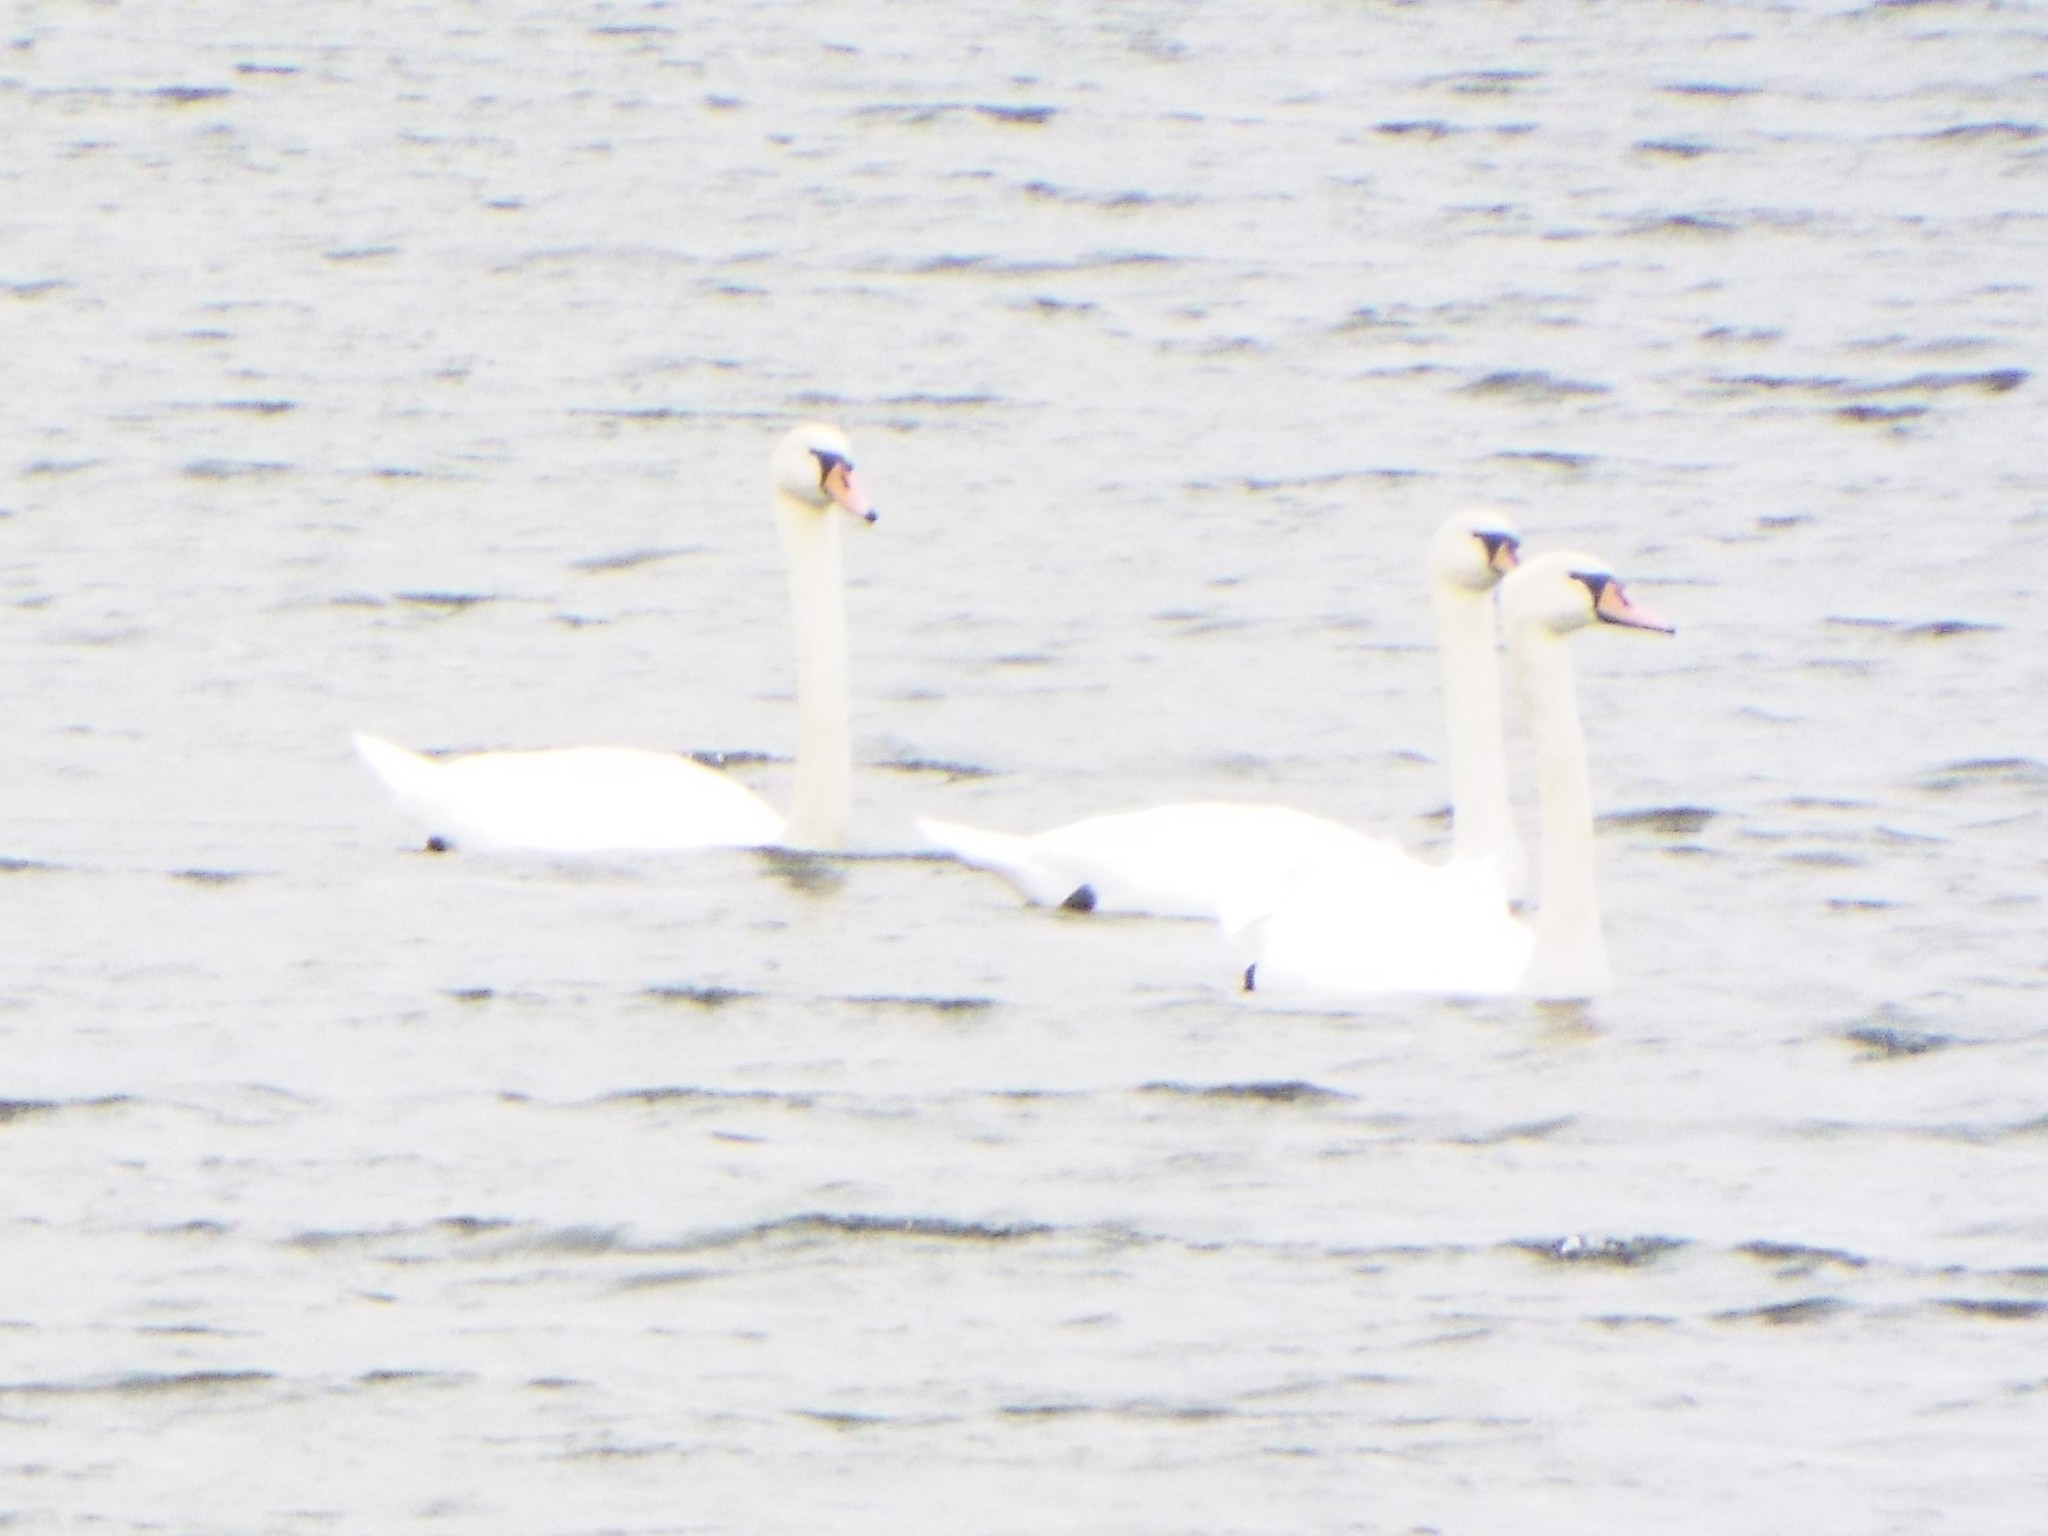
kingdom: Animalia
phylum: Chordata
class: Aves
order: Anseriformes
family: Anatidae
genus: Cygnus
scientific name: Cygnus olor
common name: Mute swan
